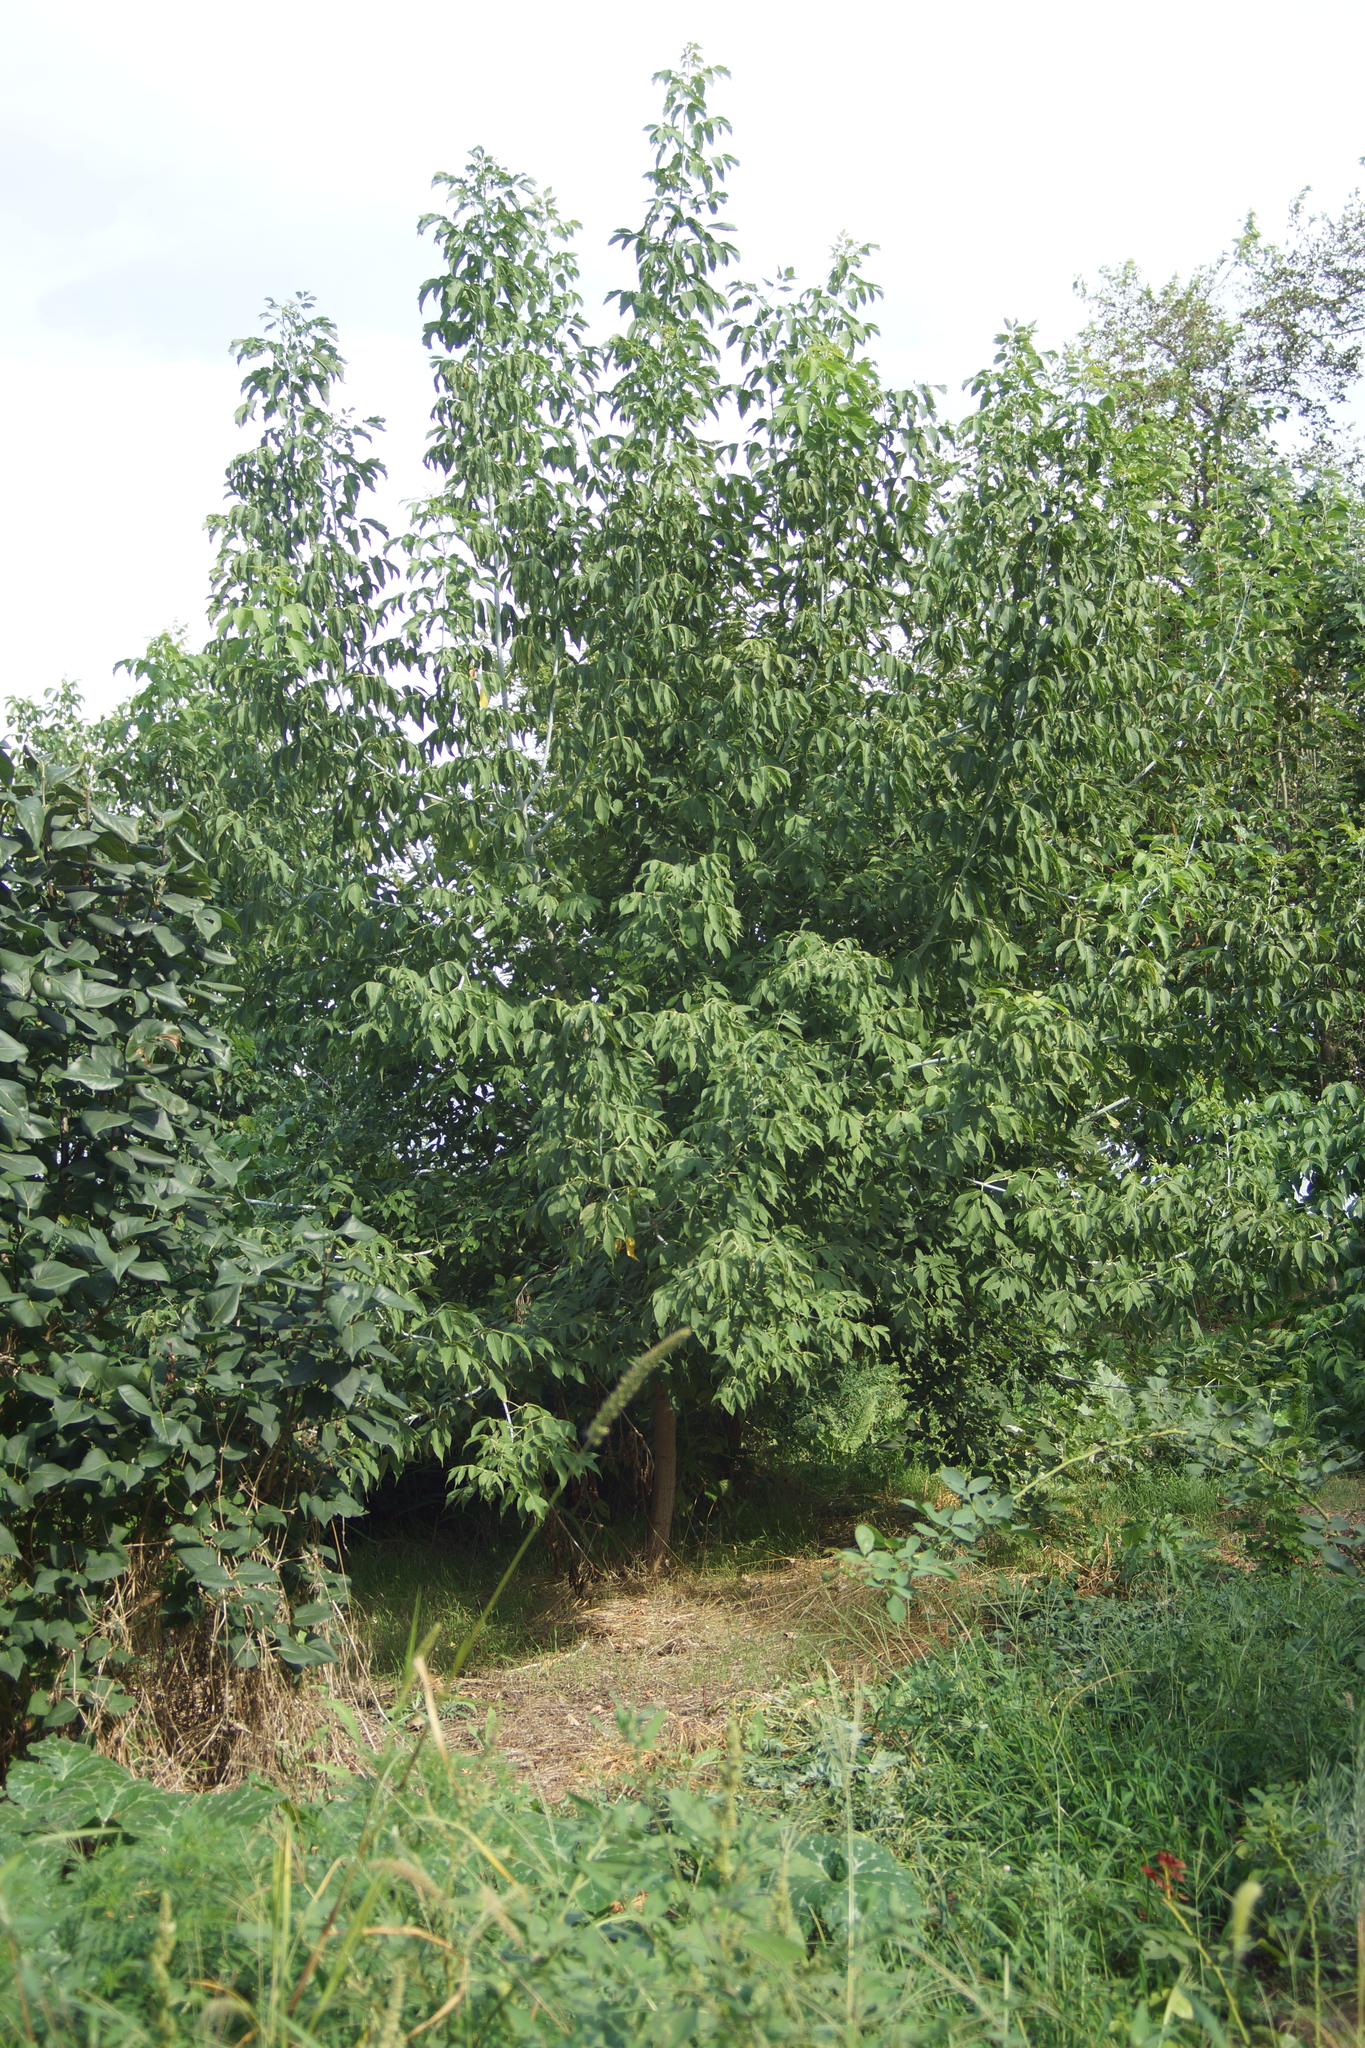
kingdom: Plantae
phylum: Tracheophyta
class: Magnoliopsida
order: Sapindales
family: Sapindaceae
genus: Acer
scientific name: Acer negundo
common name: Ashleaf maple
